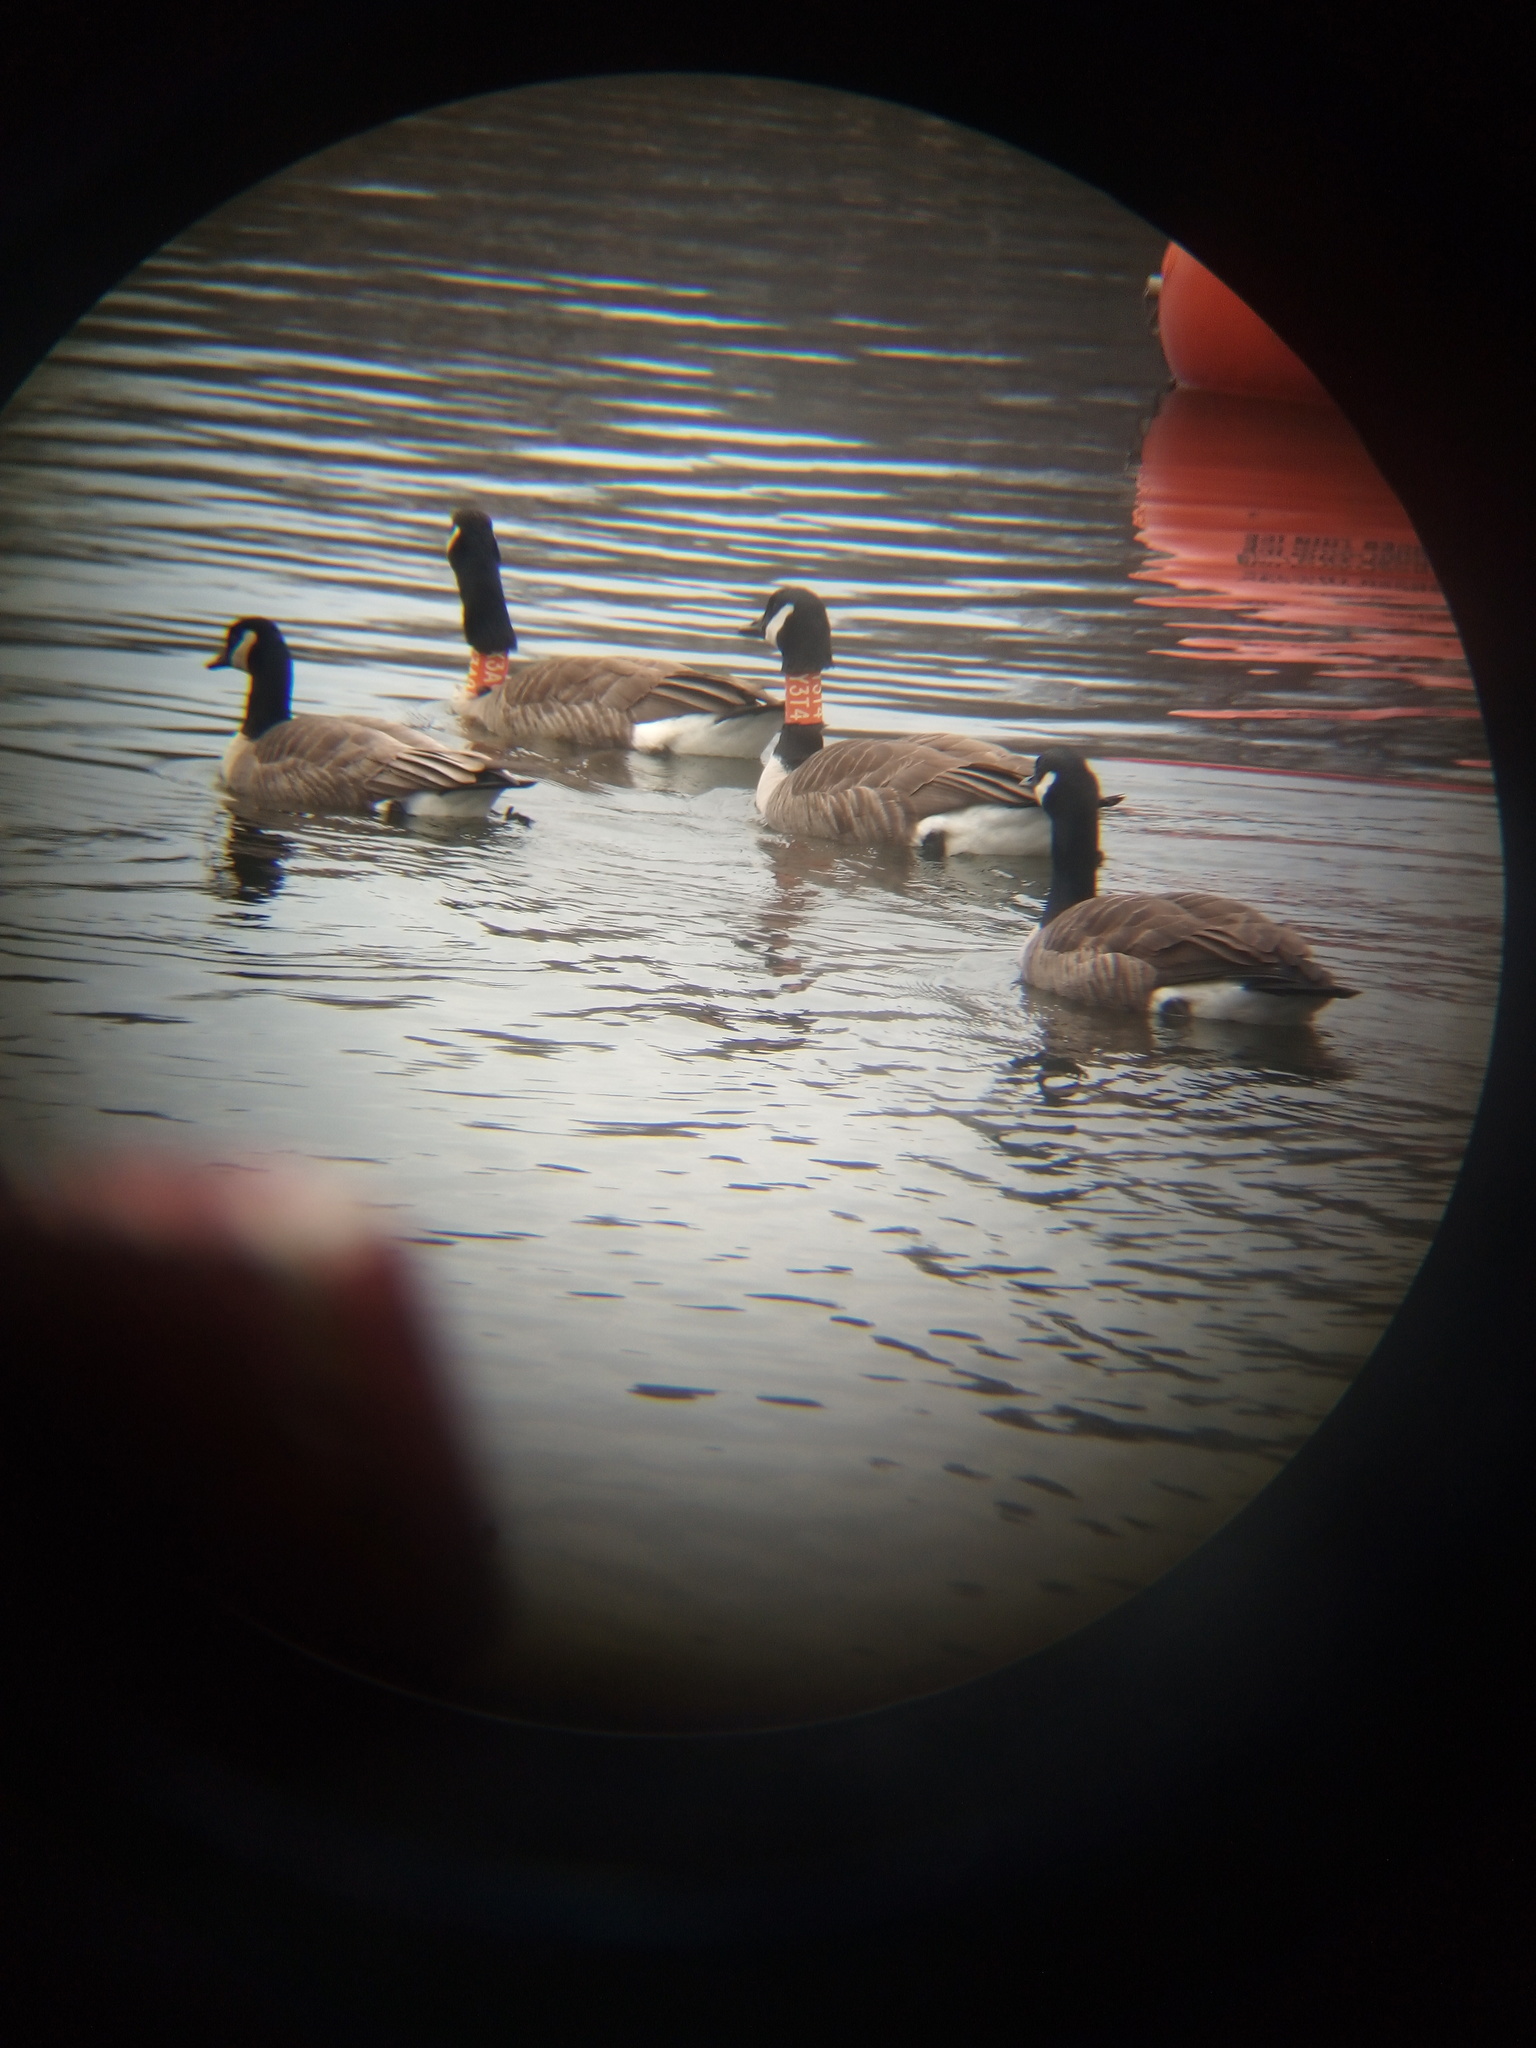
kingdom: Animalia
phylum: Chordata
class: Aves
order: Anseriformes
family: Anatidae
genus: Branta
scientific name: Branta canadensis
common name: Canada goose
